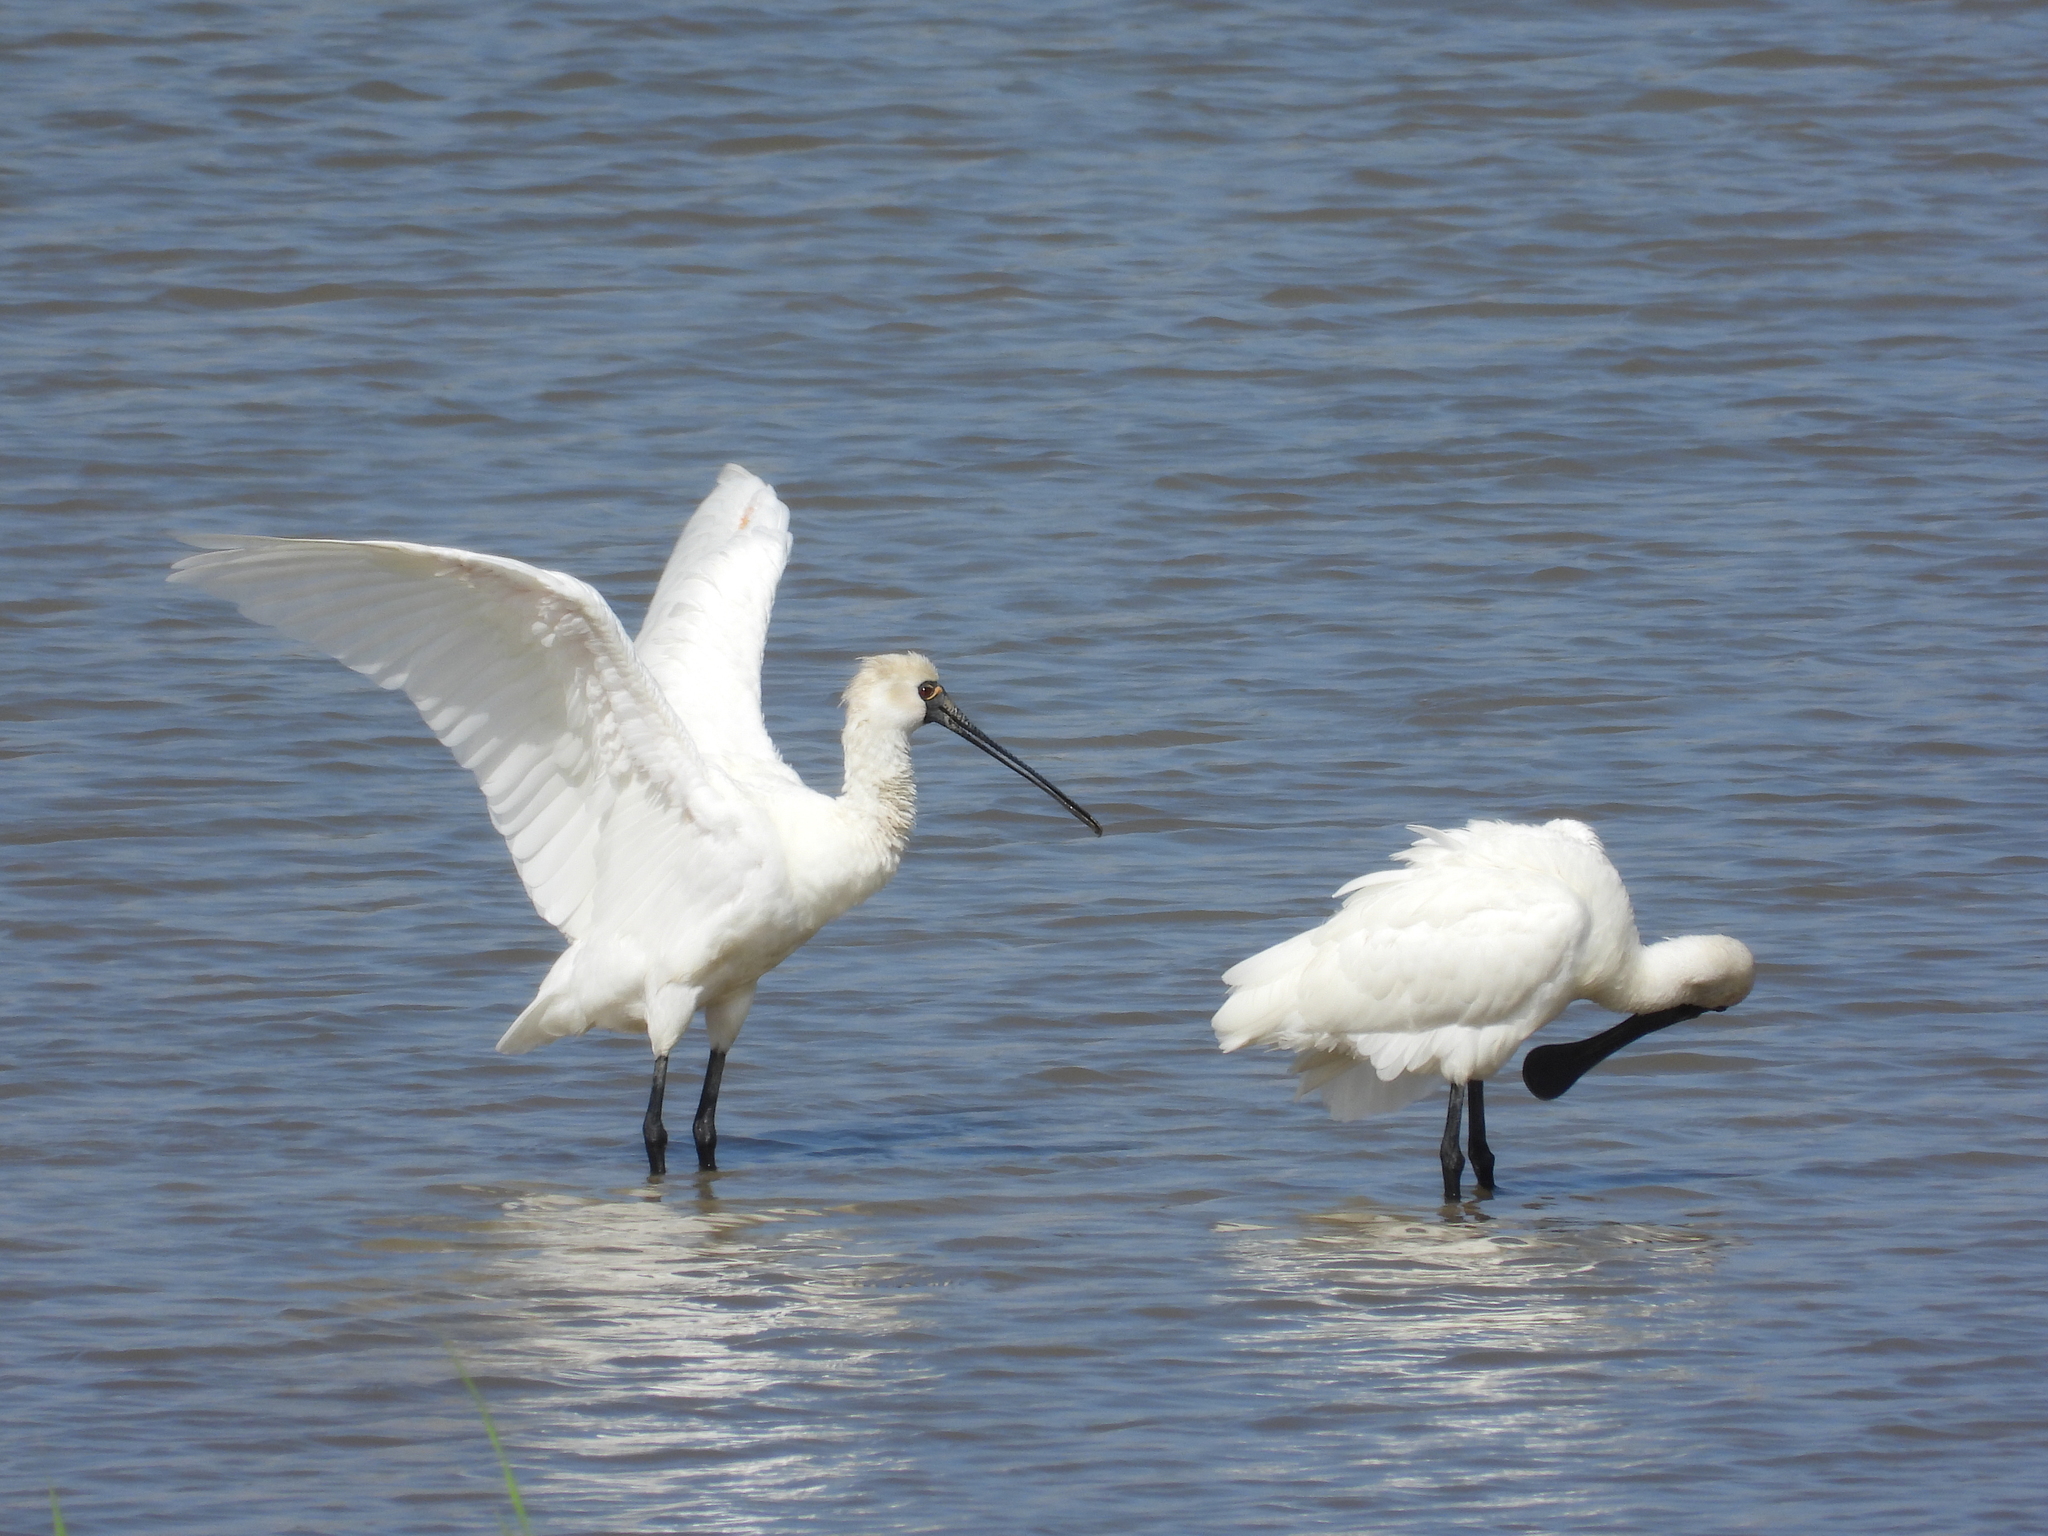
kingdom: Animalia
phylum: Chordata
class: Aves
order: Pelecaniformes
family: Threskiornithidae
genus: Platalea
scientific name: Platalea minor
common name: Black-faced spoonbill
